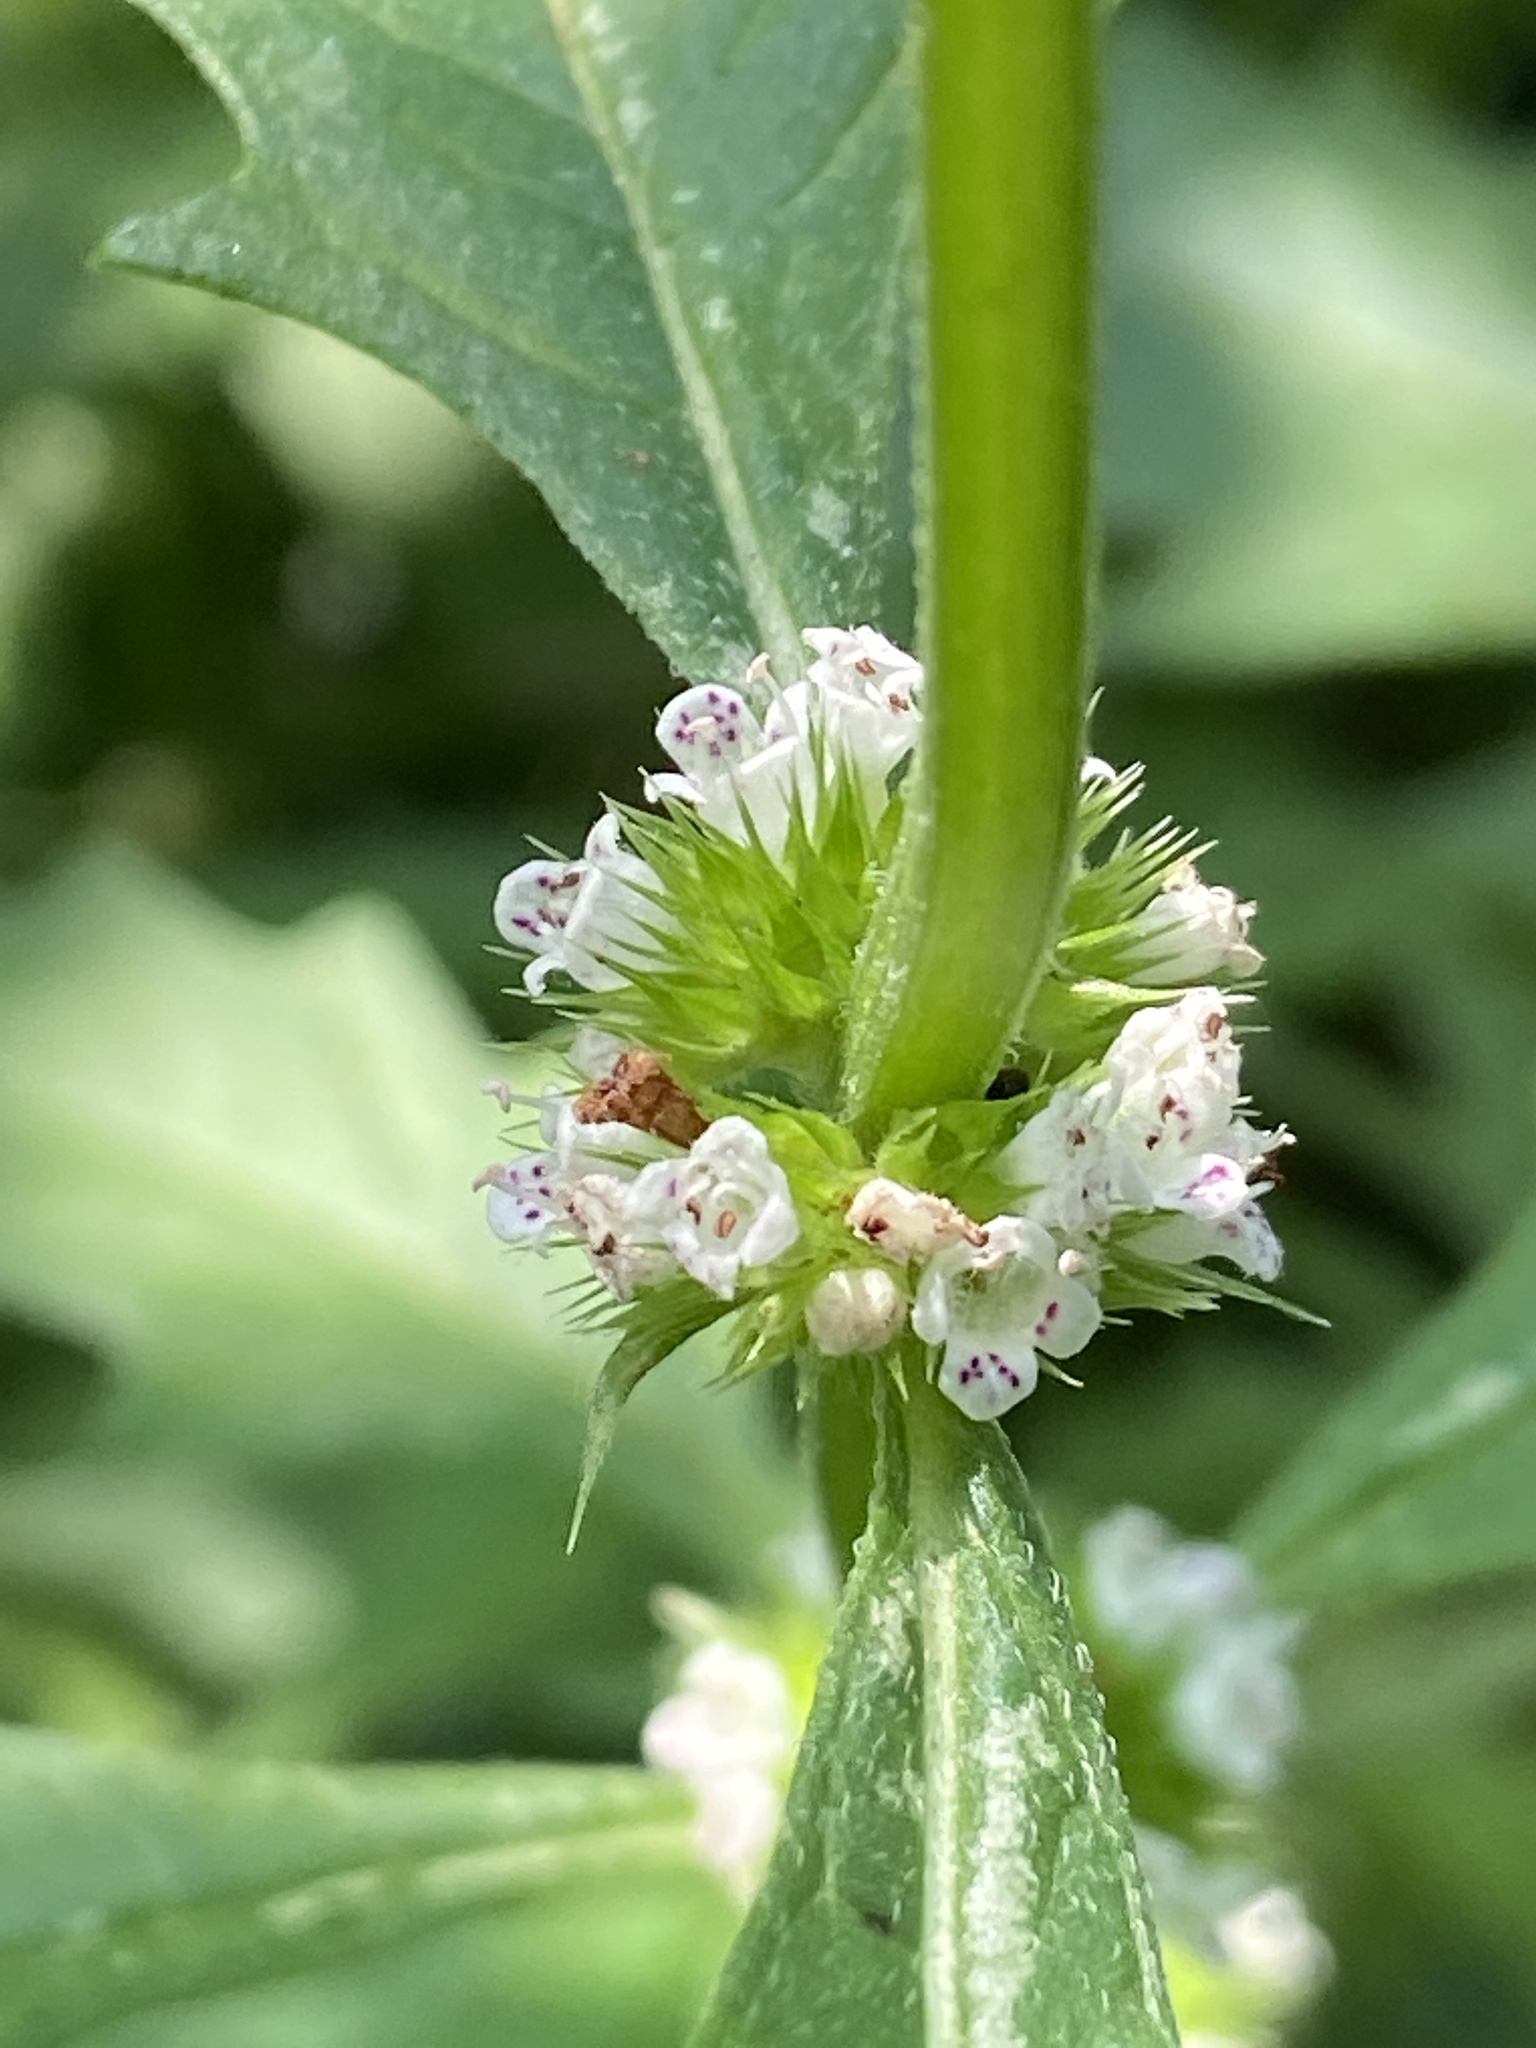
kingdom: Plantae
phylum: Tracheophyta
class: Magnoliopsida
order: Lamiales
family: Lamiaceae
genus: Lycopus
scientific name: Lycopus europaeus
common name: European bugleweed
